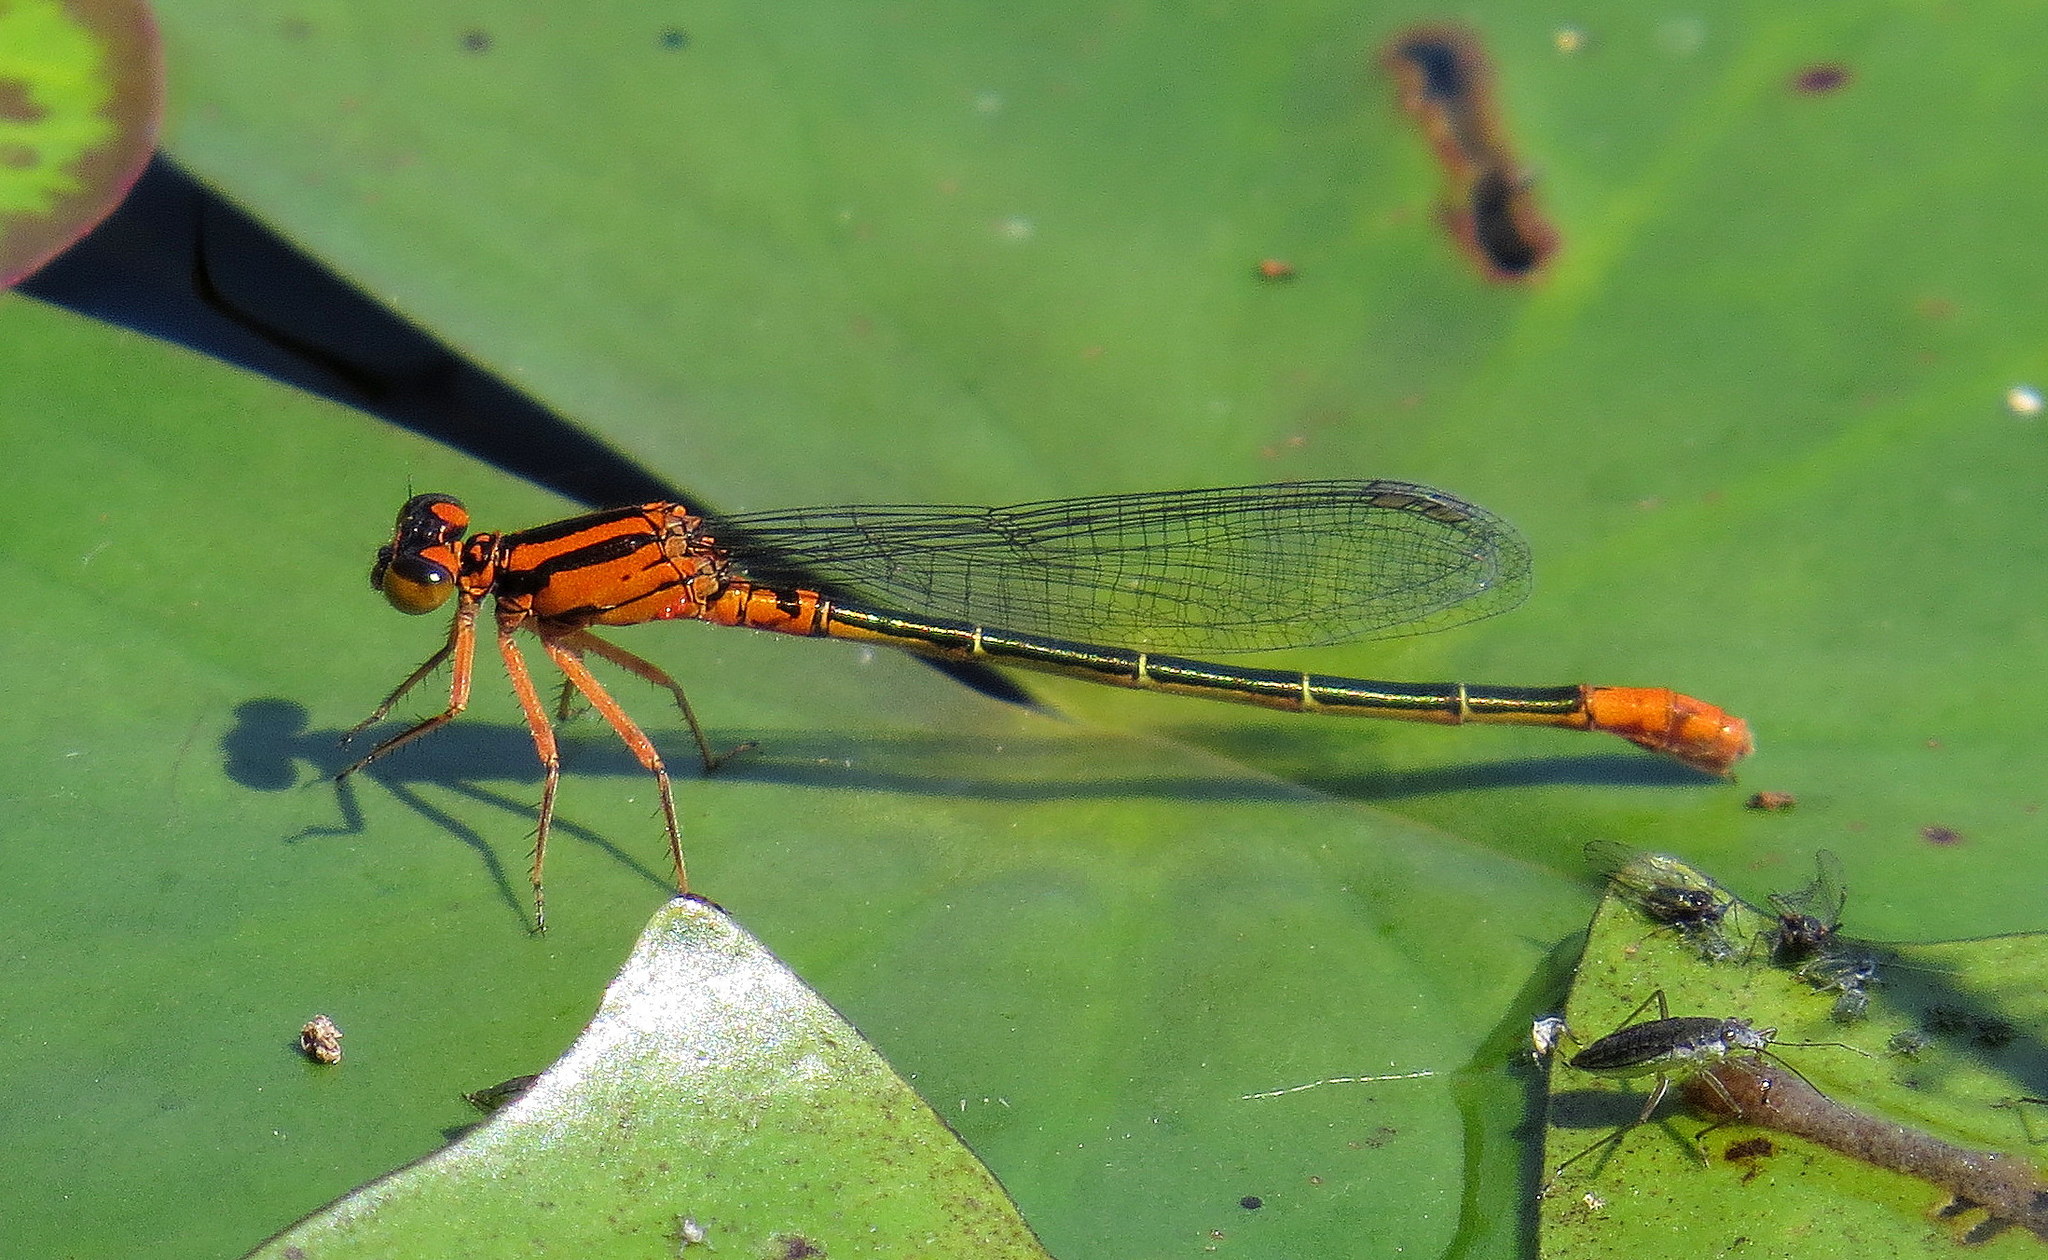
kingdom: Animalia
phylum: Arthropoda
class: Insecta
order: Odonata
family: Coenagrionidae
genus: Ischnura
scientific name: Ischnura kellicotti
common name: Lilypad forktail
